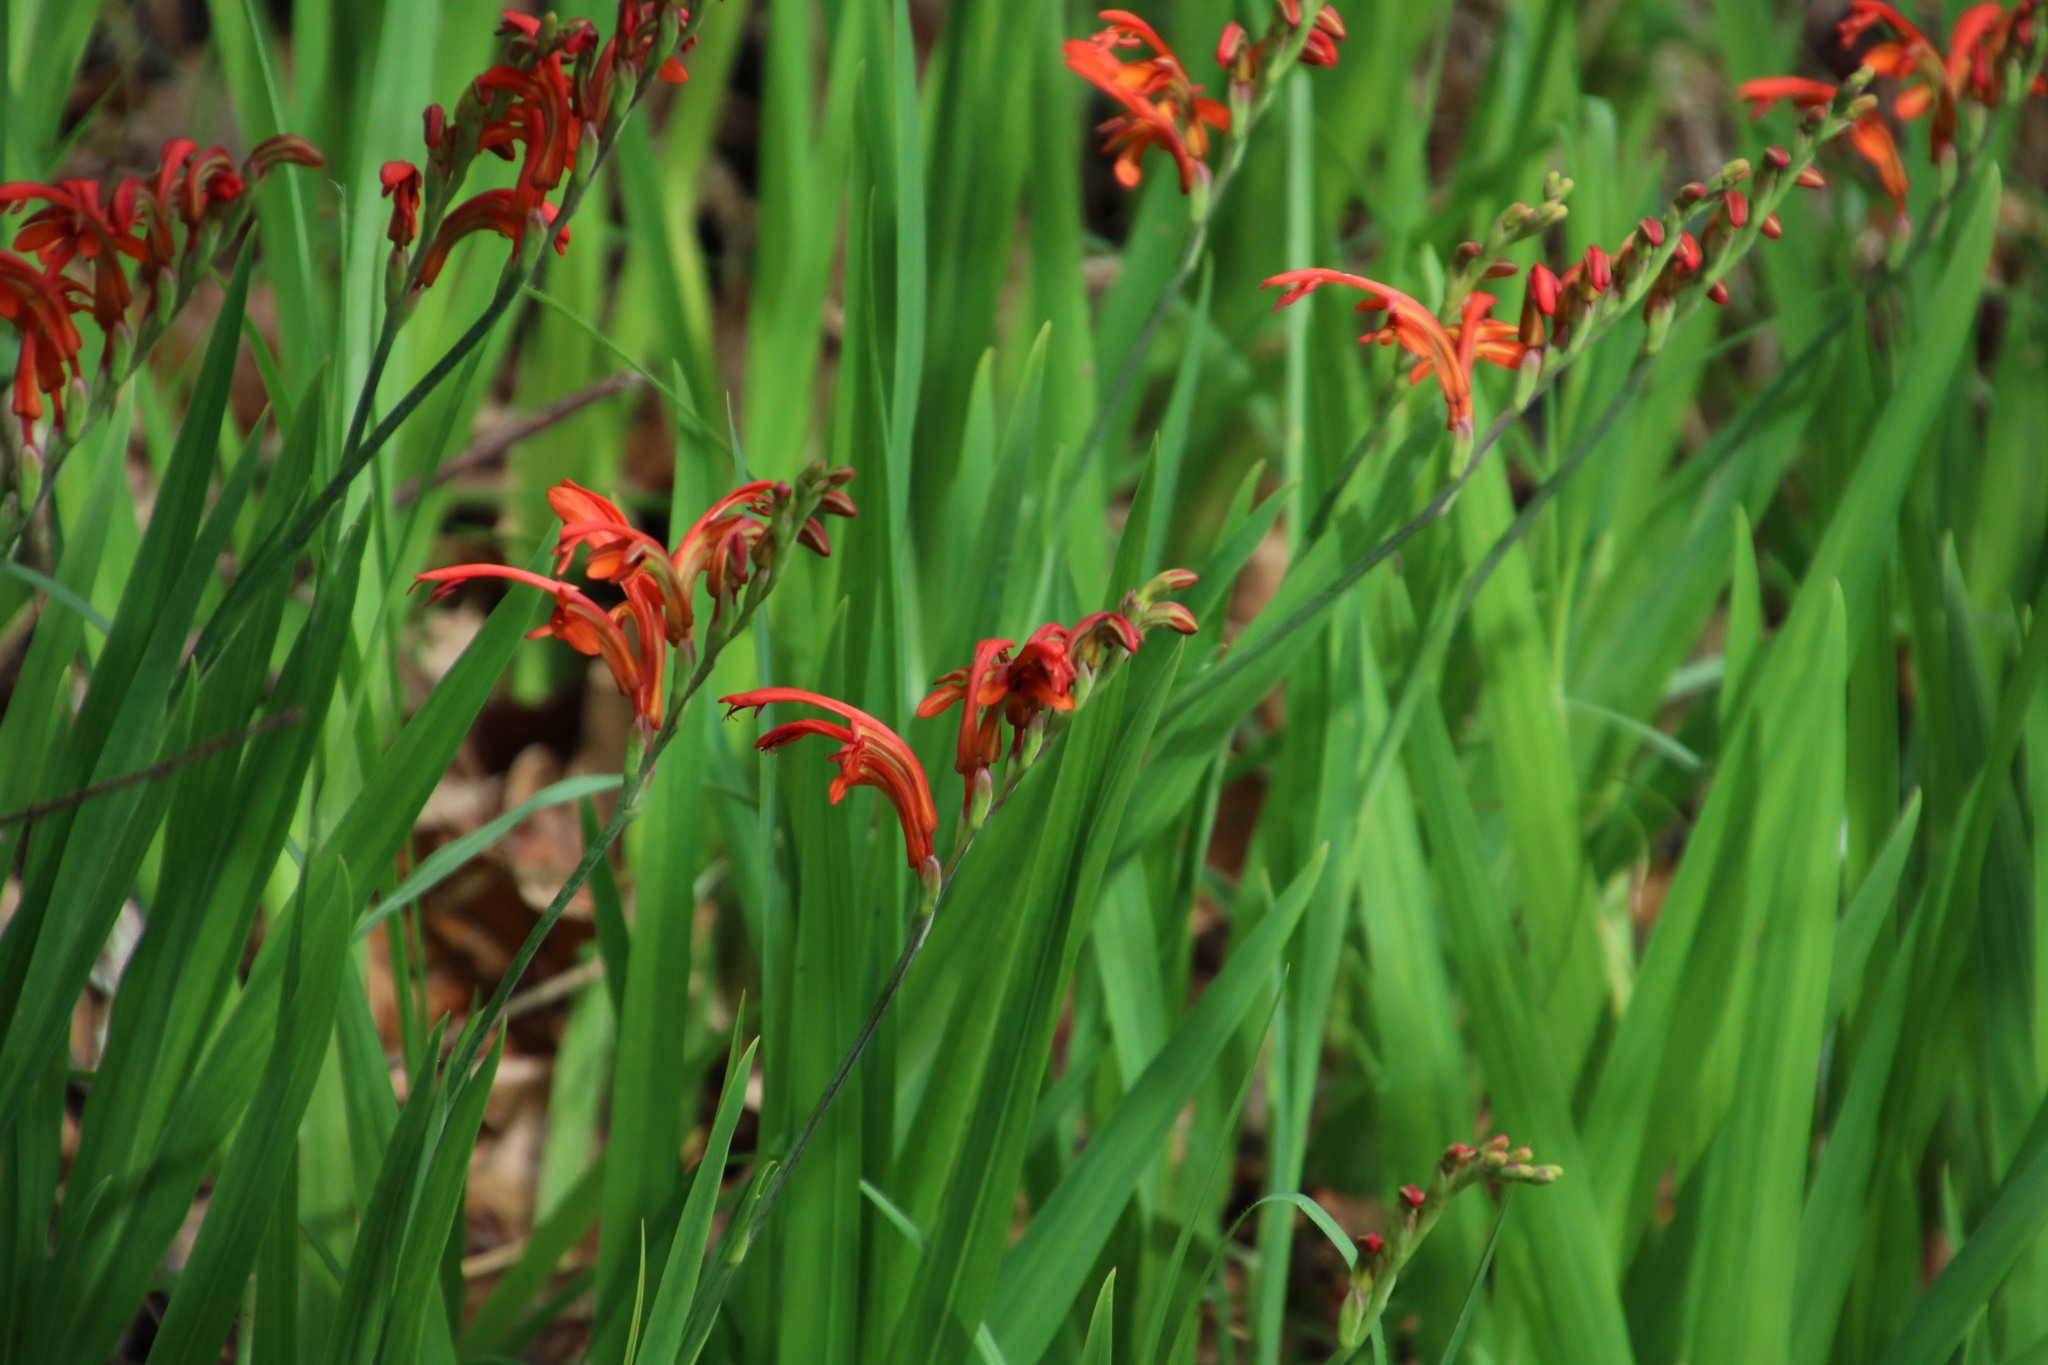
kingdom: Plantae
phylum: Tracheophyta
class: Liliopsida
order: Asparagales
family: Iridaceae
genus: Chasmanthe
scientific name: Chasmanthe aethiopica
